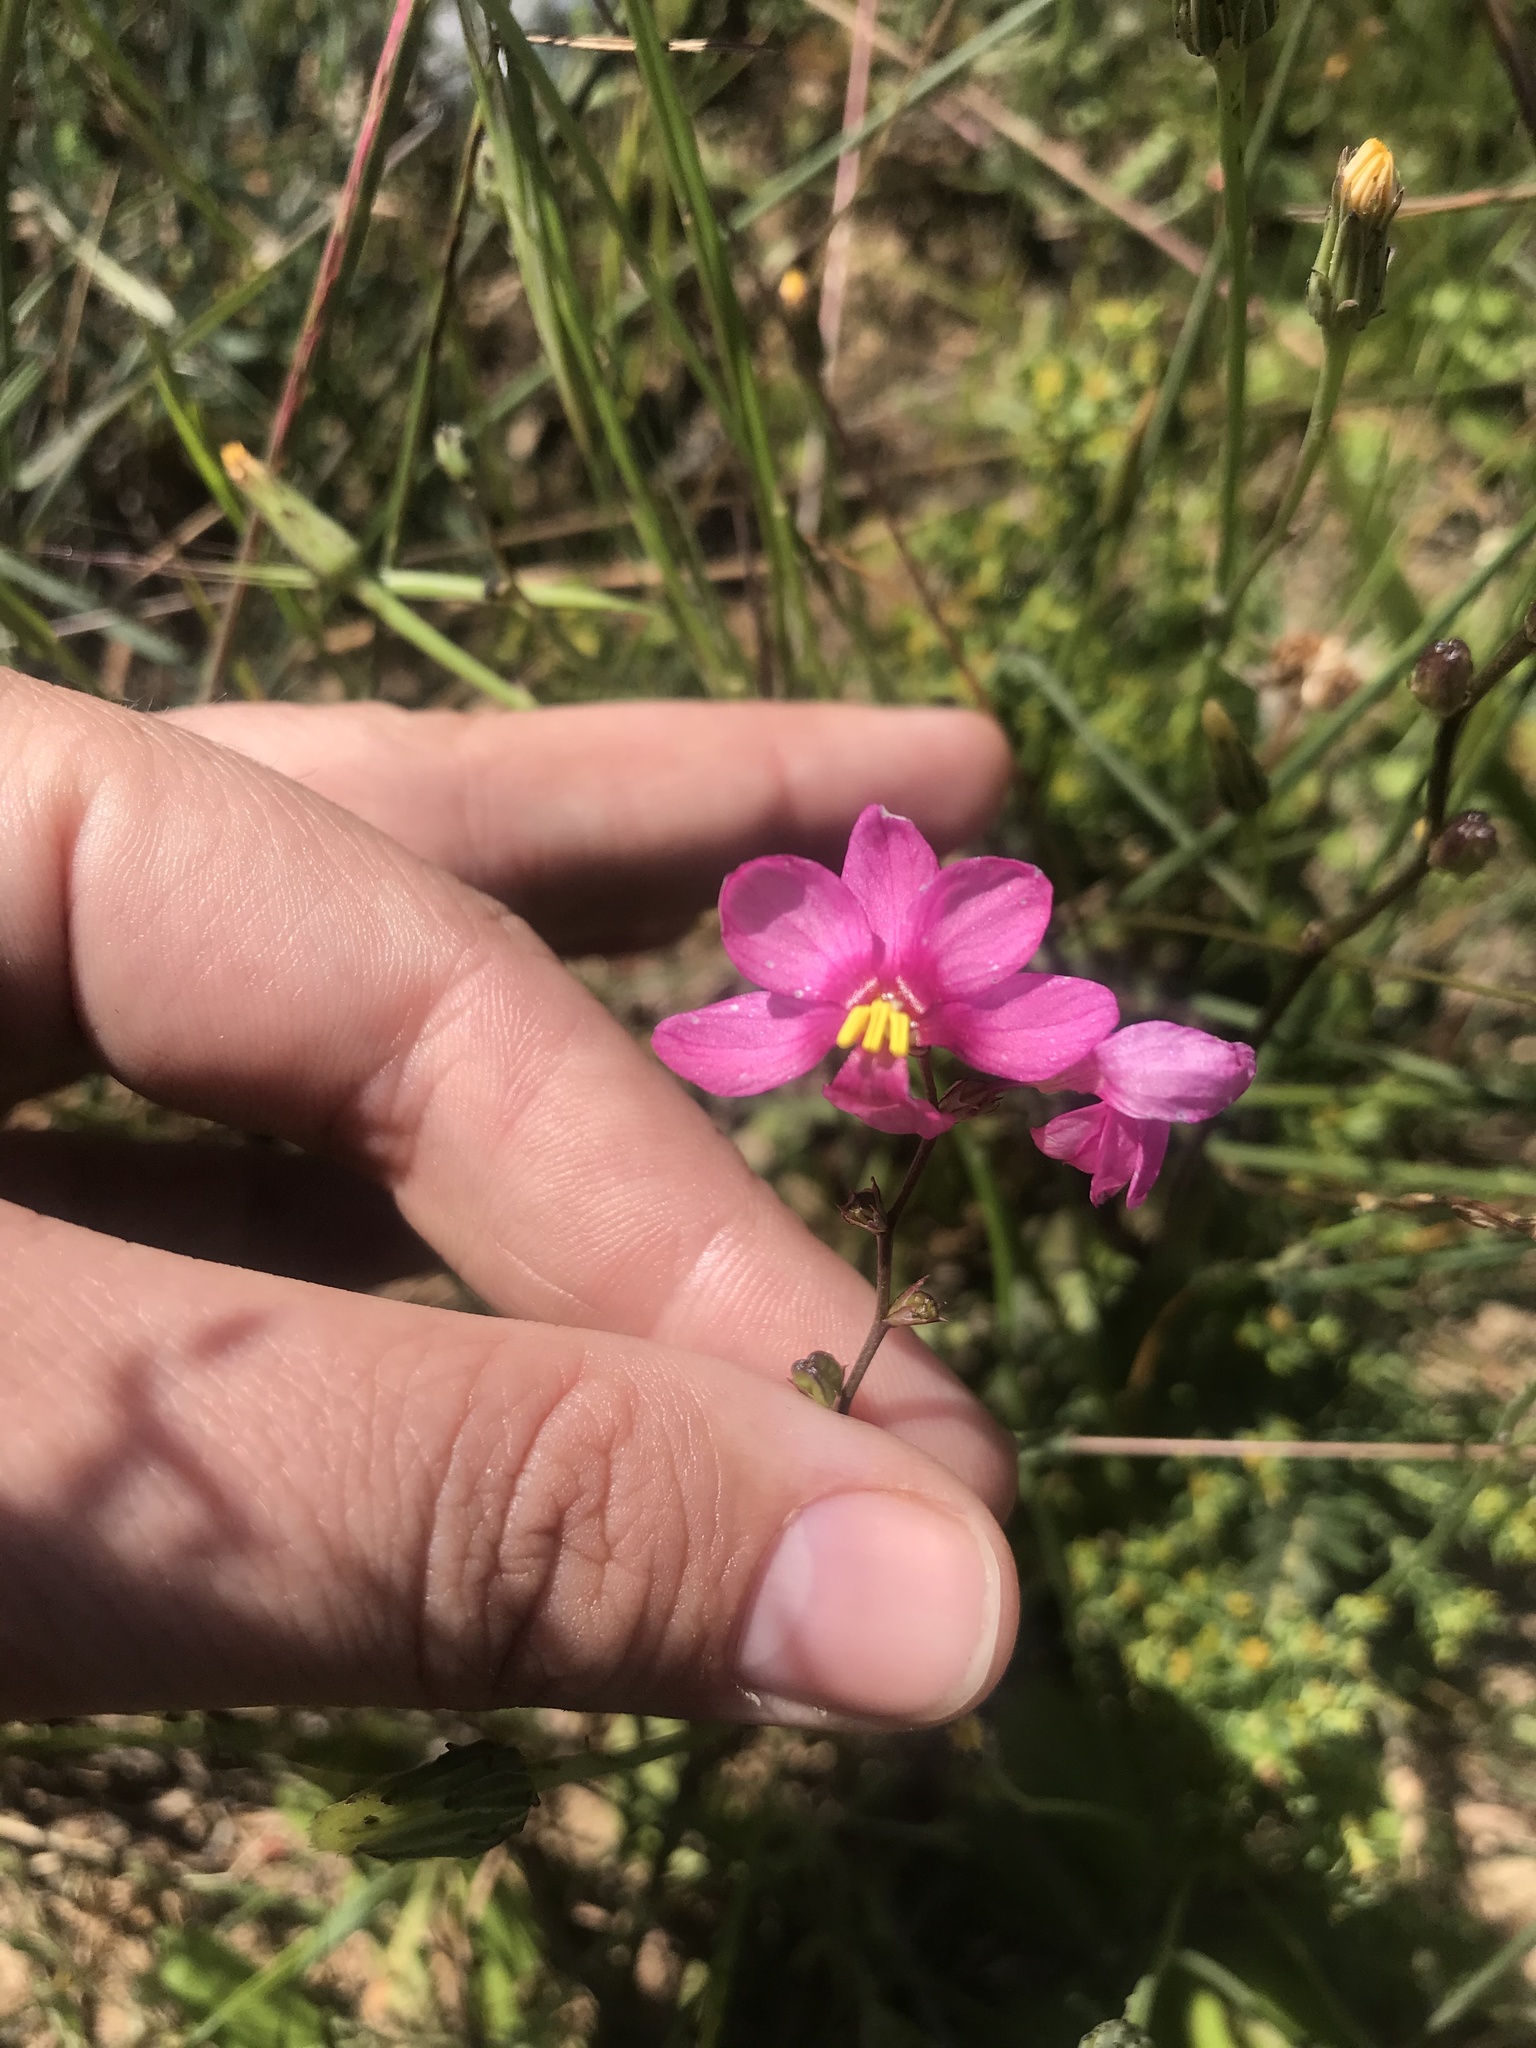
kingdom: Plantae
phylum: Tracheophyta
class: Liliopsida
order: Asparagales
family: Iridaceae
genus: Ixia
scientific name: Ixia scillaris
